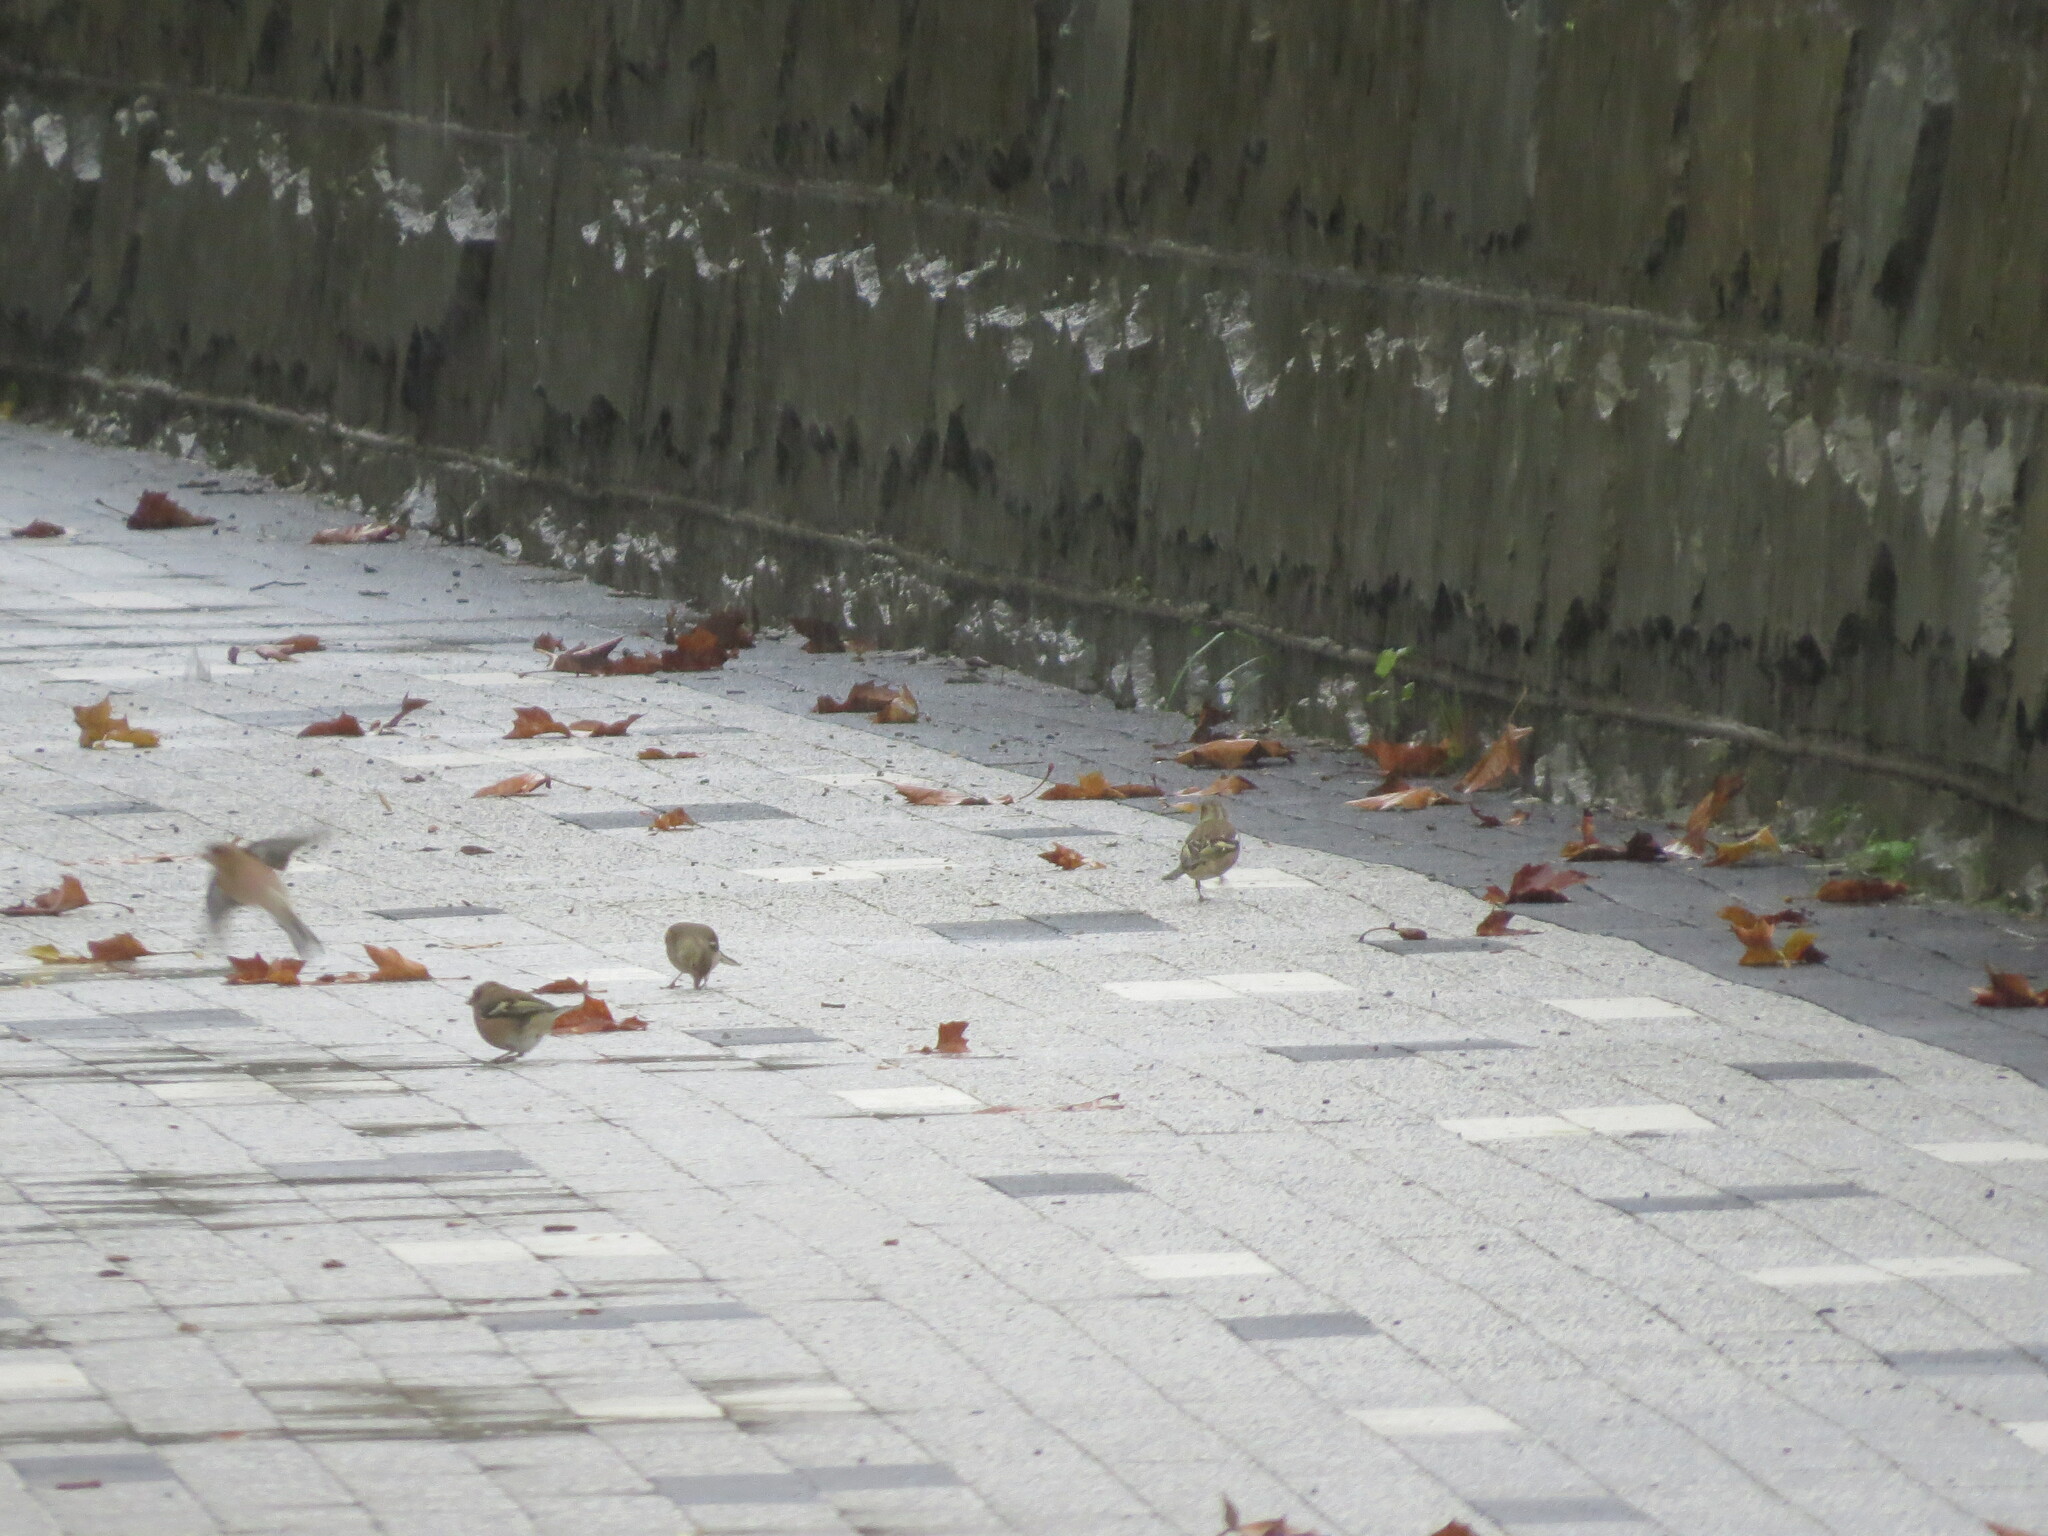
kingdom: Animalia
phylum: Chordata
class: Aves
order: Passeriformes
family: Fringillidae
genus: Fringilla
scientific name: Fringilla coelebs
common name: Common chaffinch
